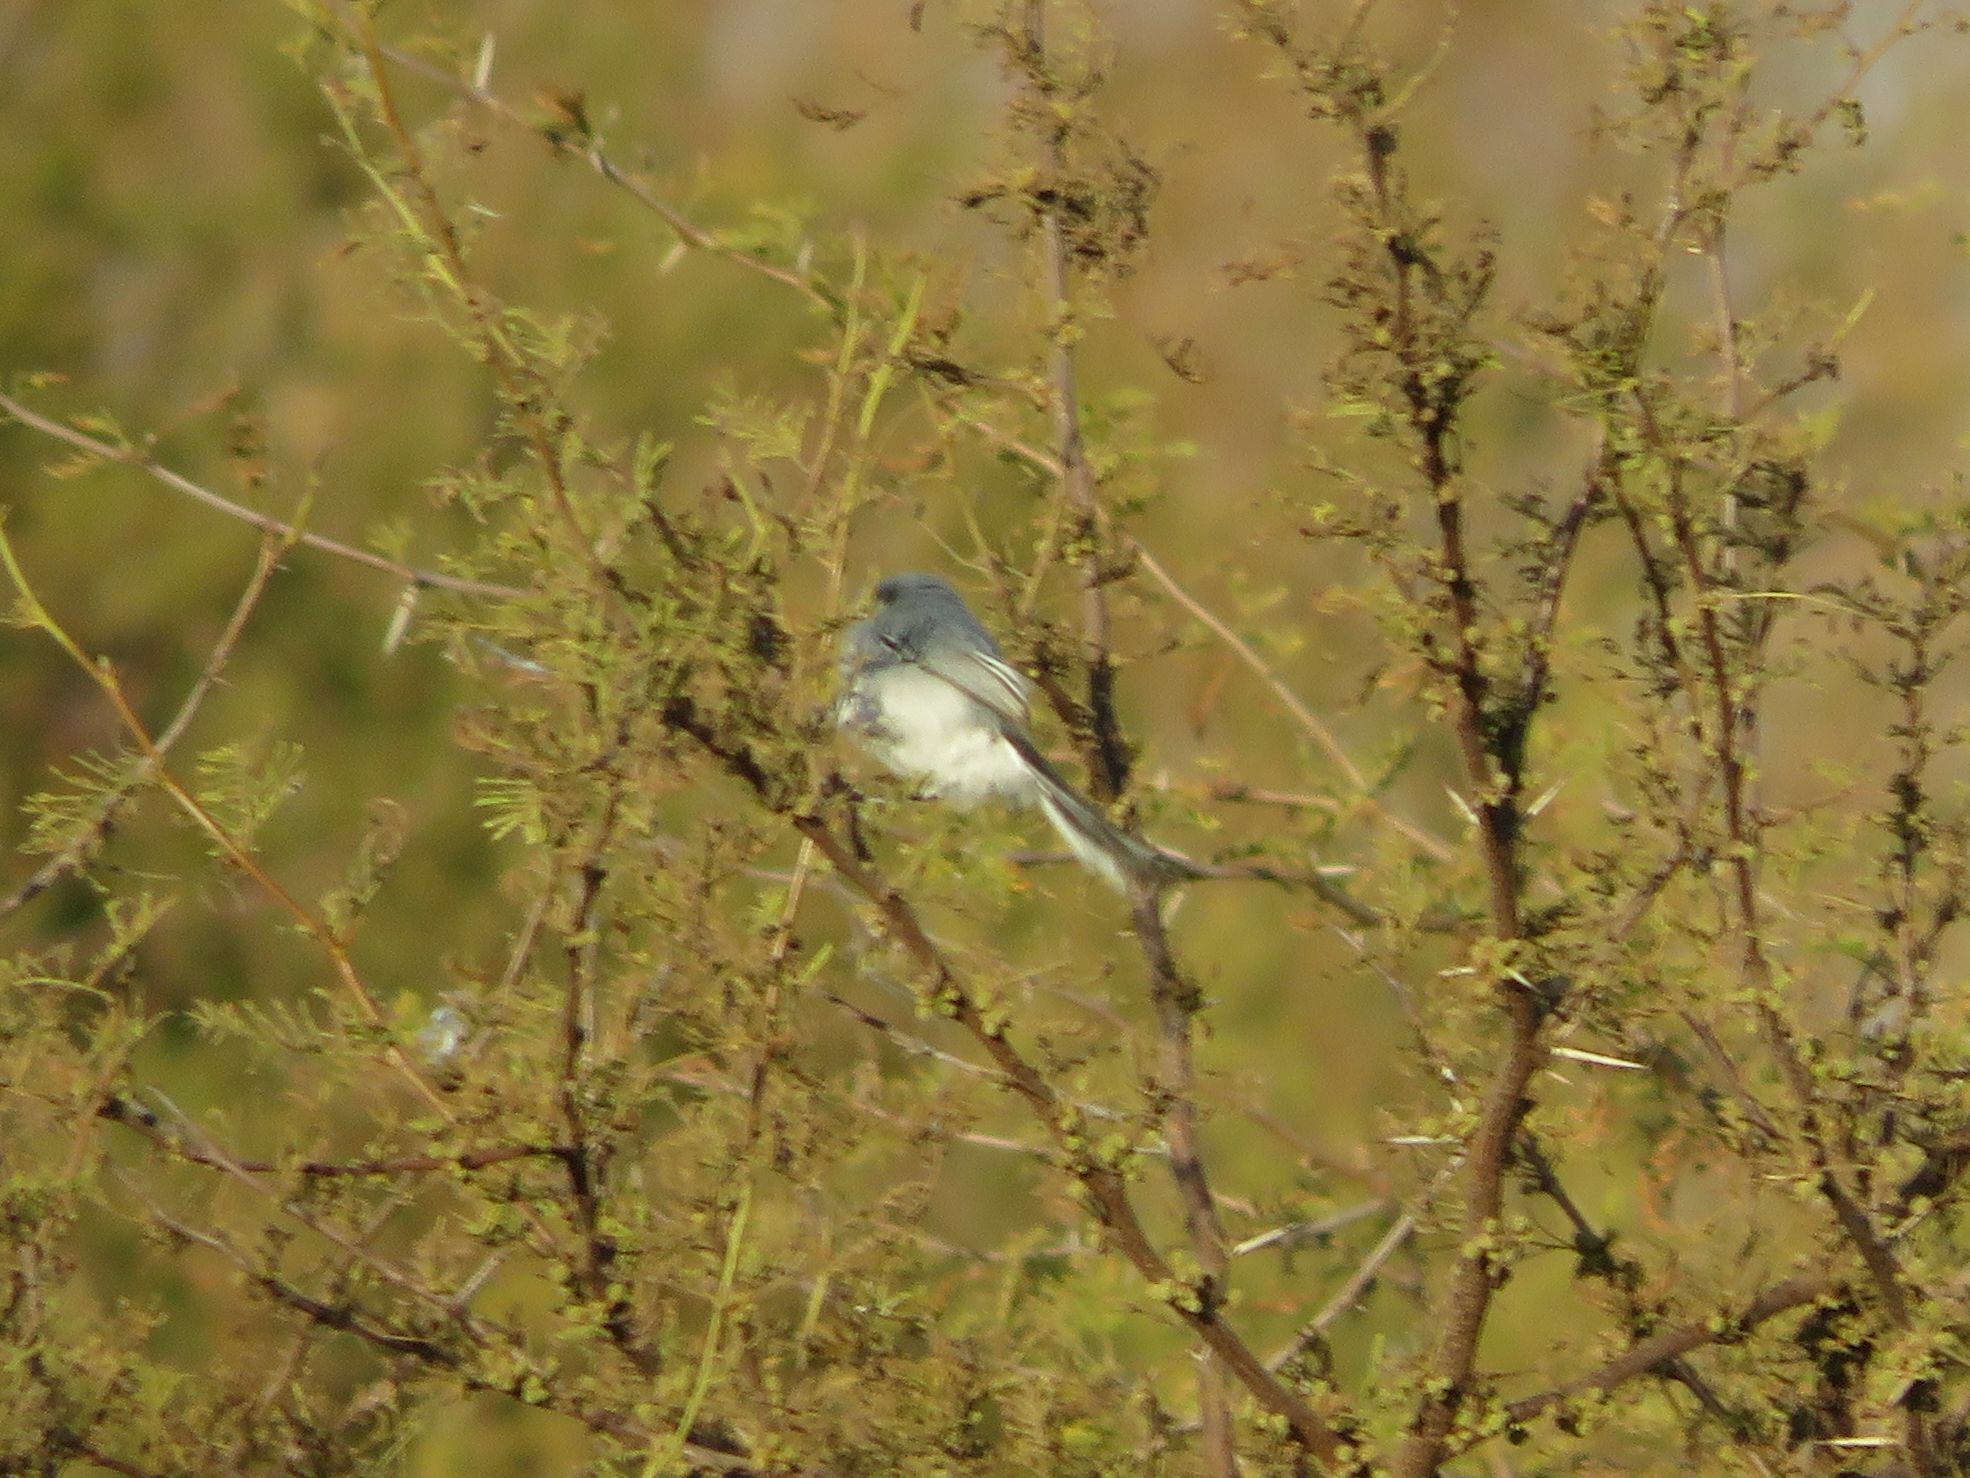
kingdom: Animalia
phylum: Chordata
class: Aves
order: Passeriformes
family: Polioptilidae
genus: Polioptila
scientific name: Polioptila dumicola
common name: Masked gnatcatcher
